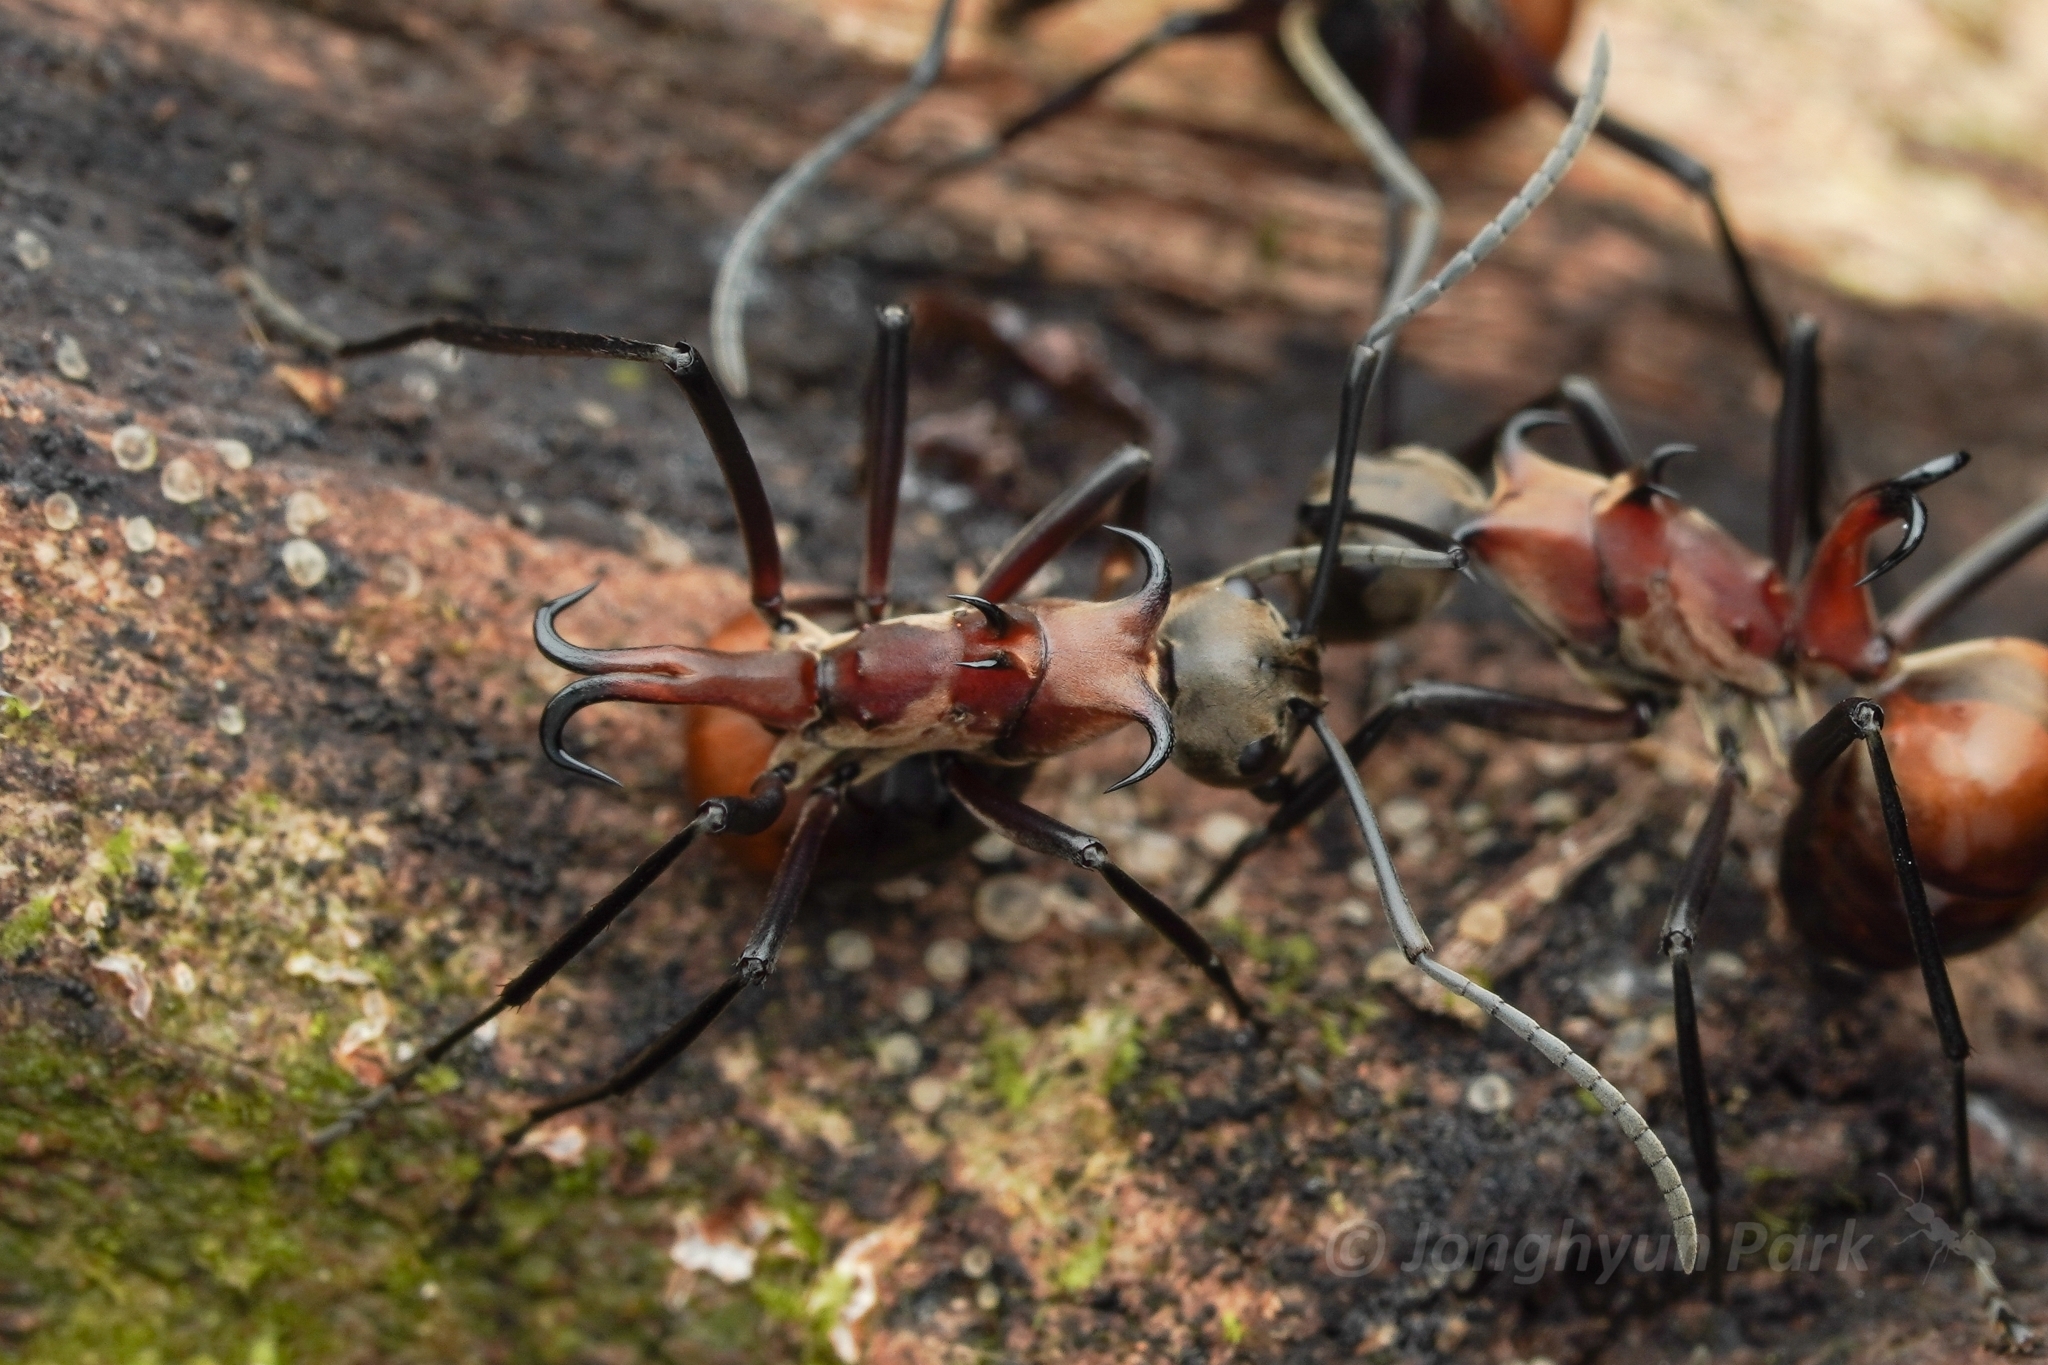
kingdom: Animalia
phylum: Arthropoda
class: Insecta
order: Hymenoptera
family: Formicidae
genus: Polyrhachis
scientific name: Polyrhachis bihamata
